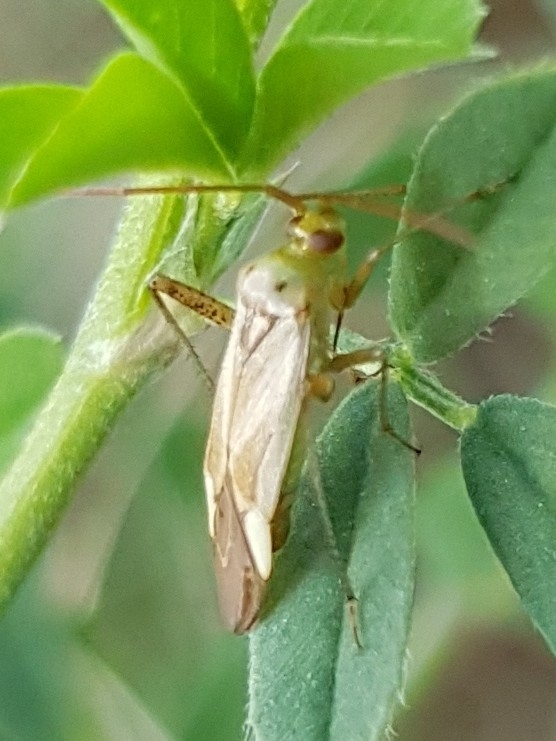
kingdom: Animalia
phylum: Arthropoda
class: Insecta
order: Hemiptera
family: Miridae
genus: Adelphocoris
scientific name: Adelphocoris lineolatus
